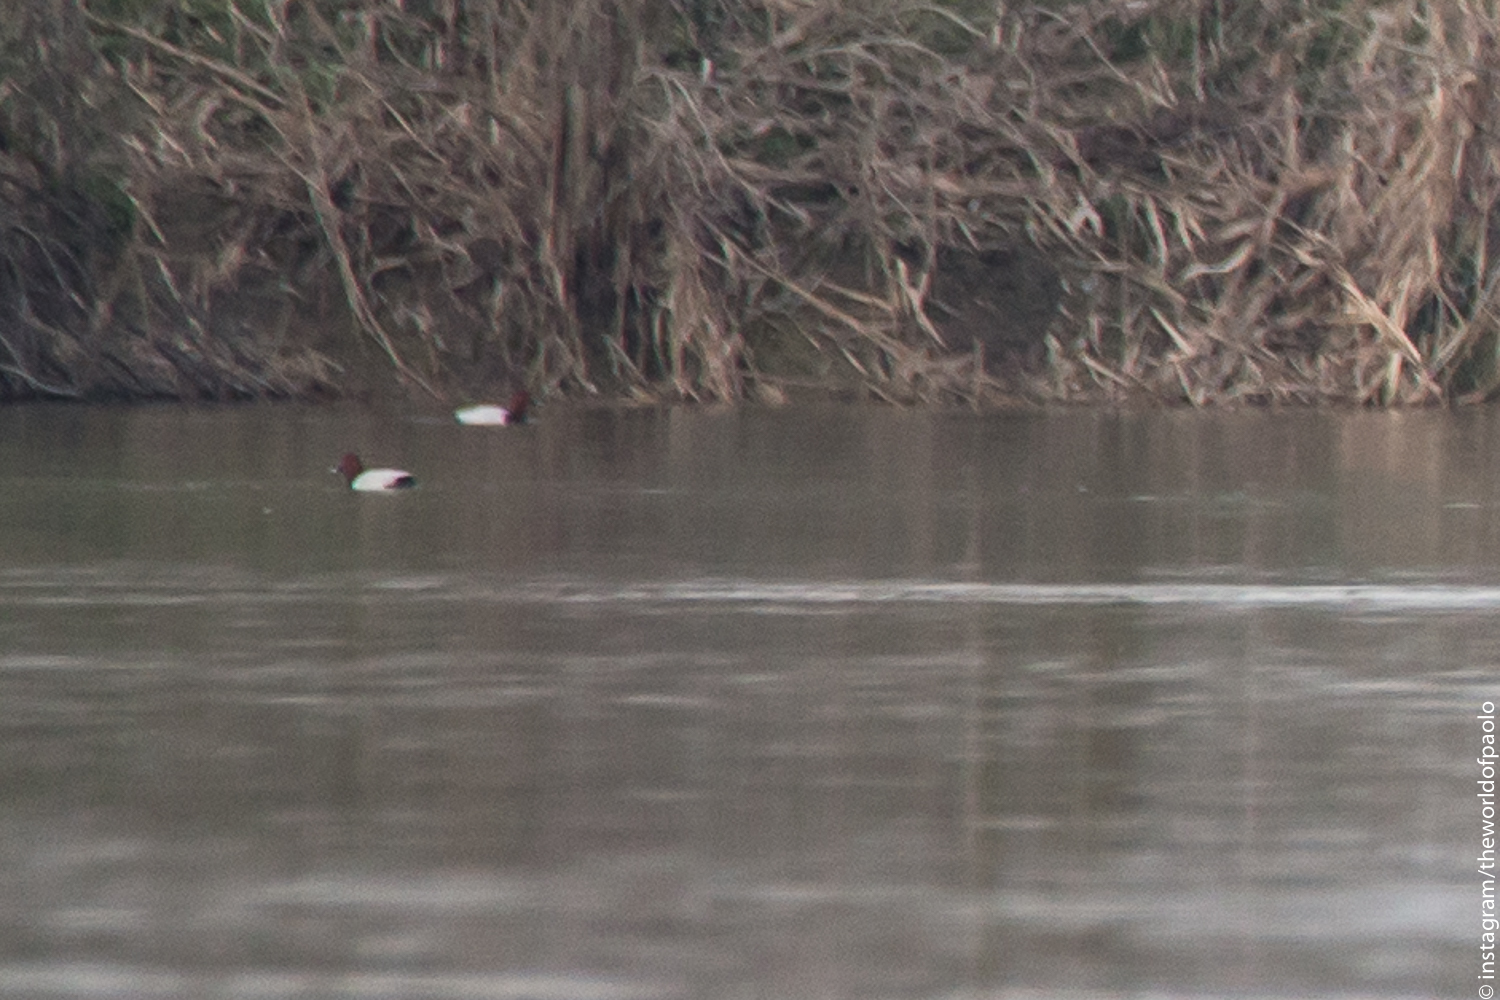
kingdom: Animalia
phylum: Chordata
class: Aves
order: Anseriformes
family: Anatidae
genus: Aythya
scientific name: Aythya ferina
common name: Common pochard
